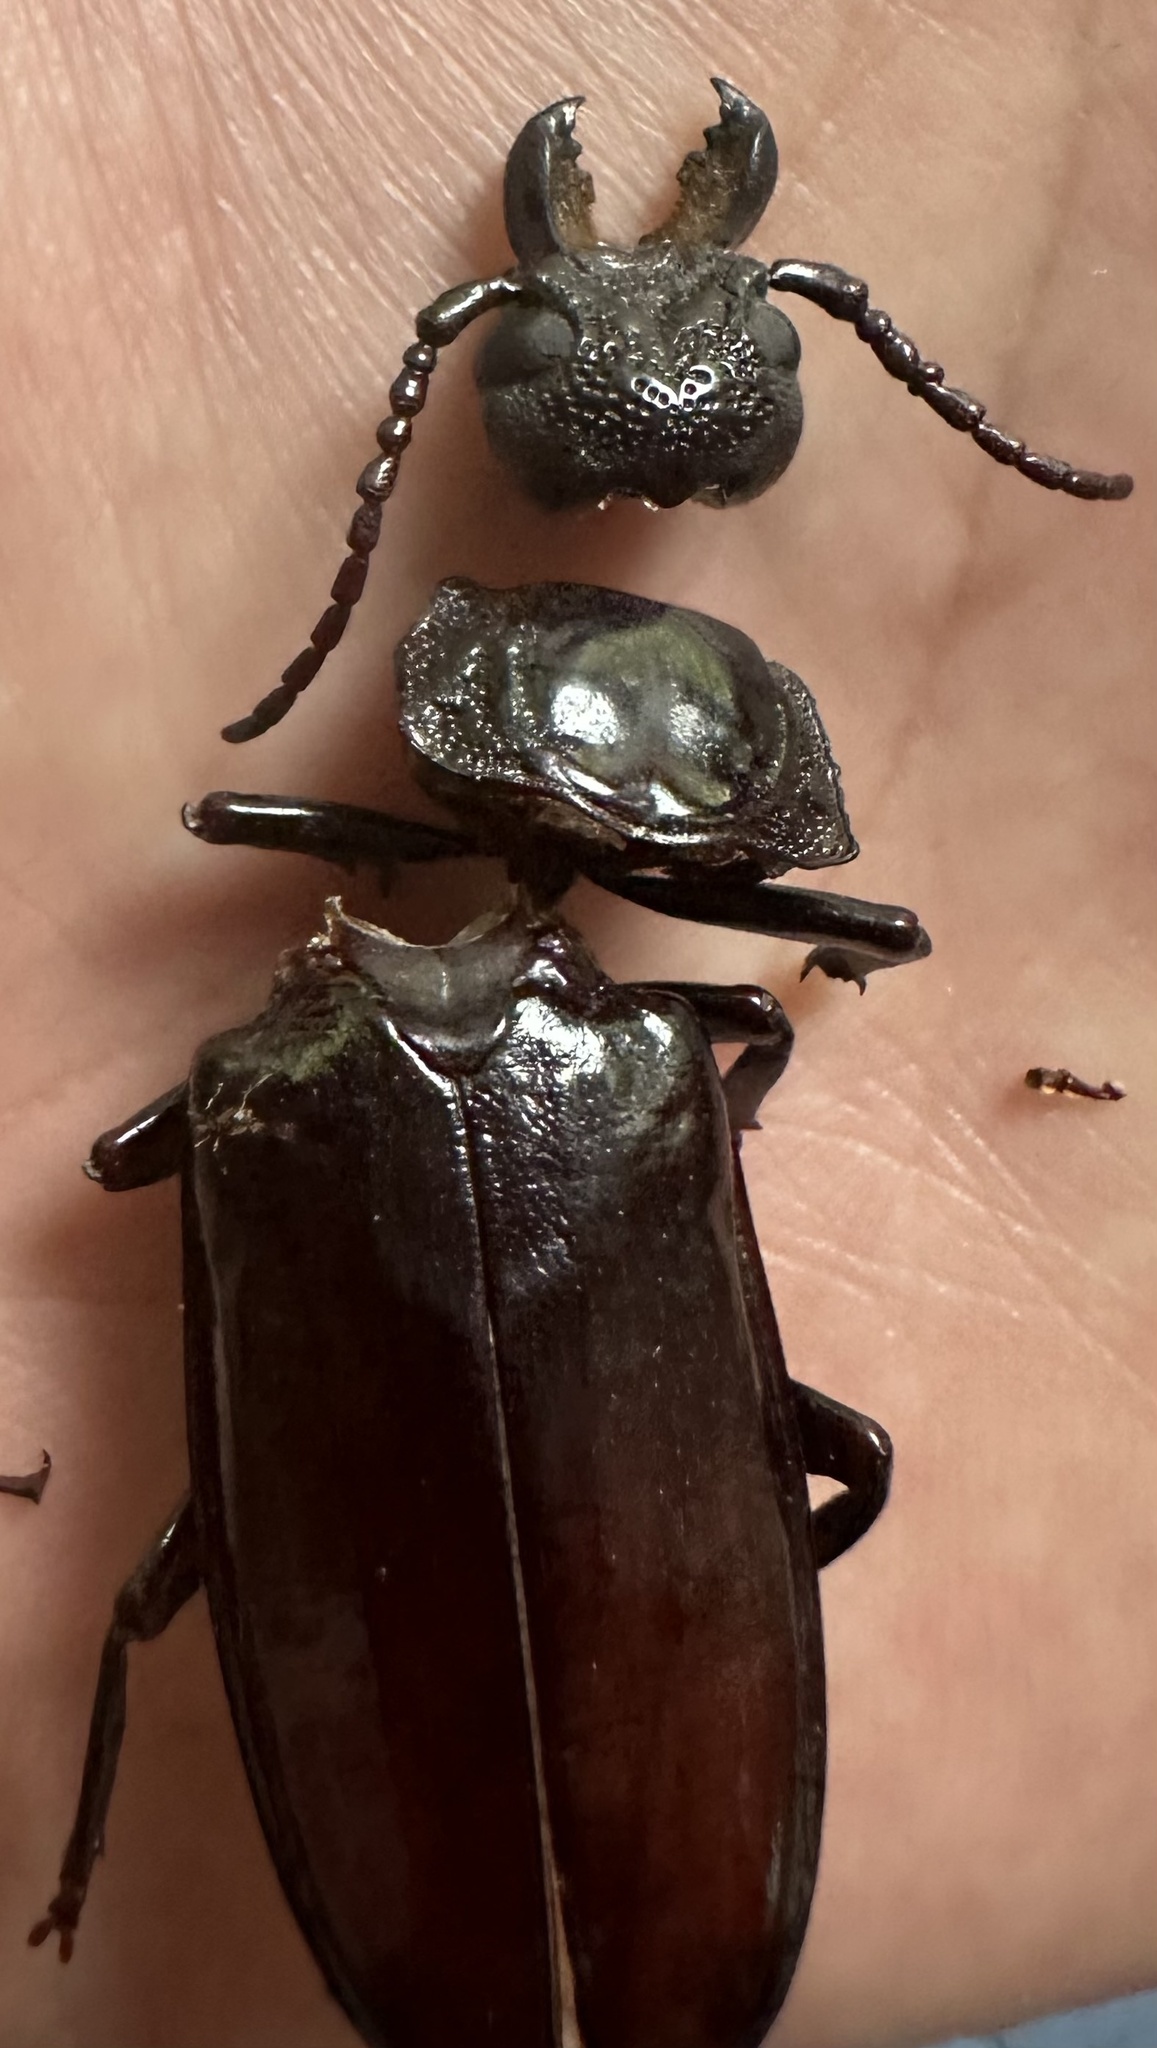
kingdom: Animalia
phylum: Arthropoda
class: Insecta
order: Coleoptera
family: Cerambycidae
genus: Mallodon
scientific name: Mallodon downesii
